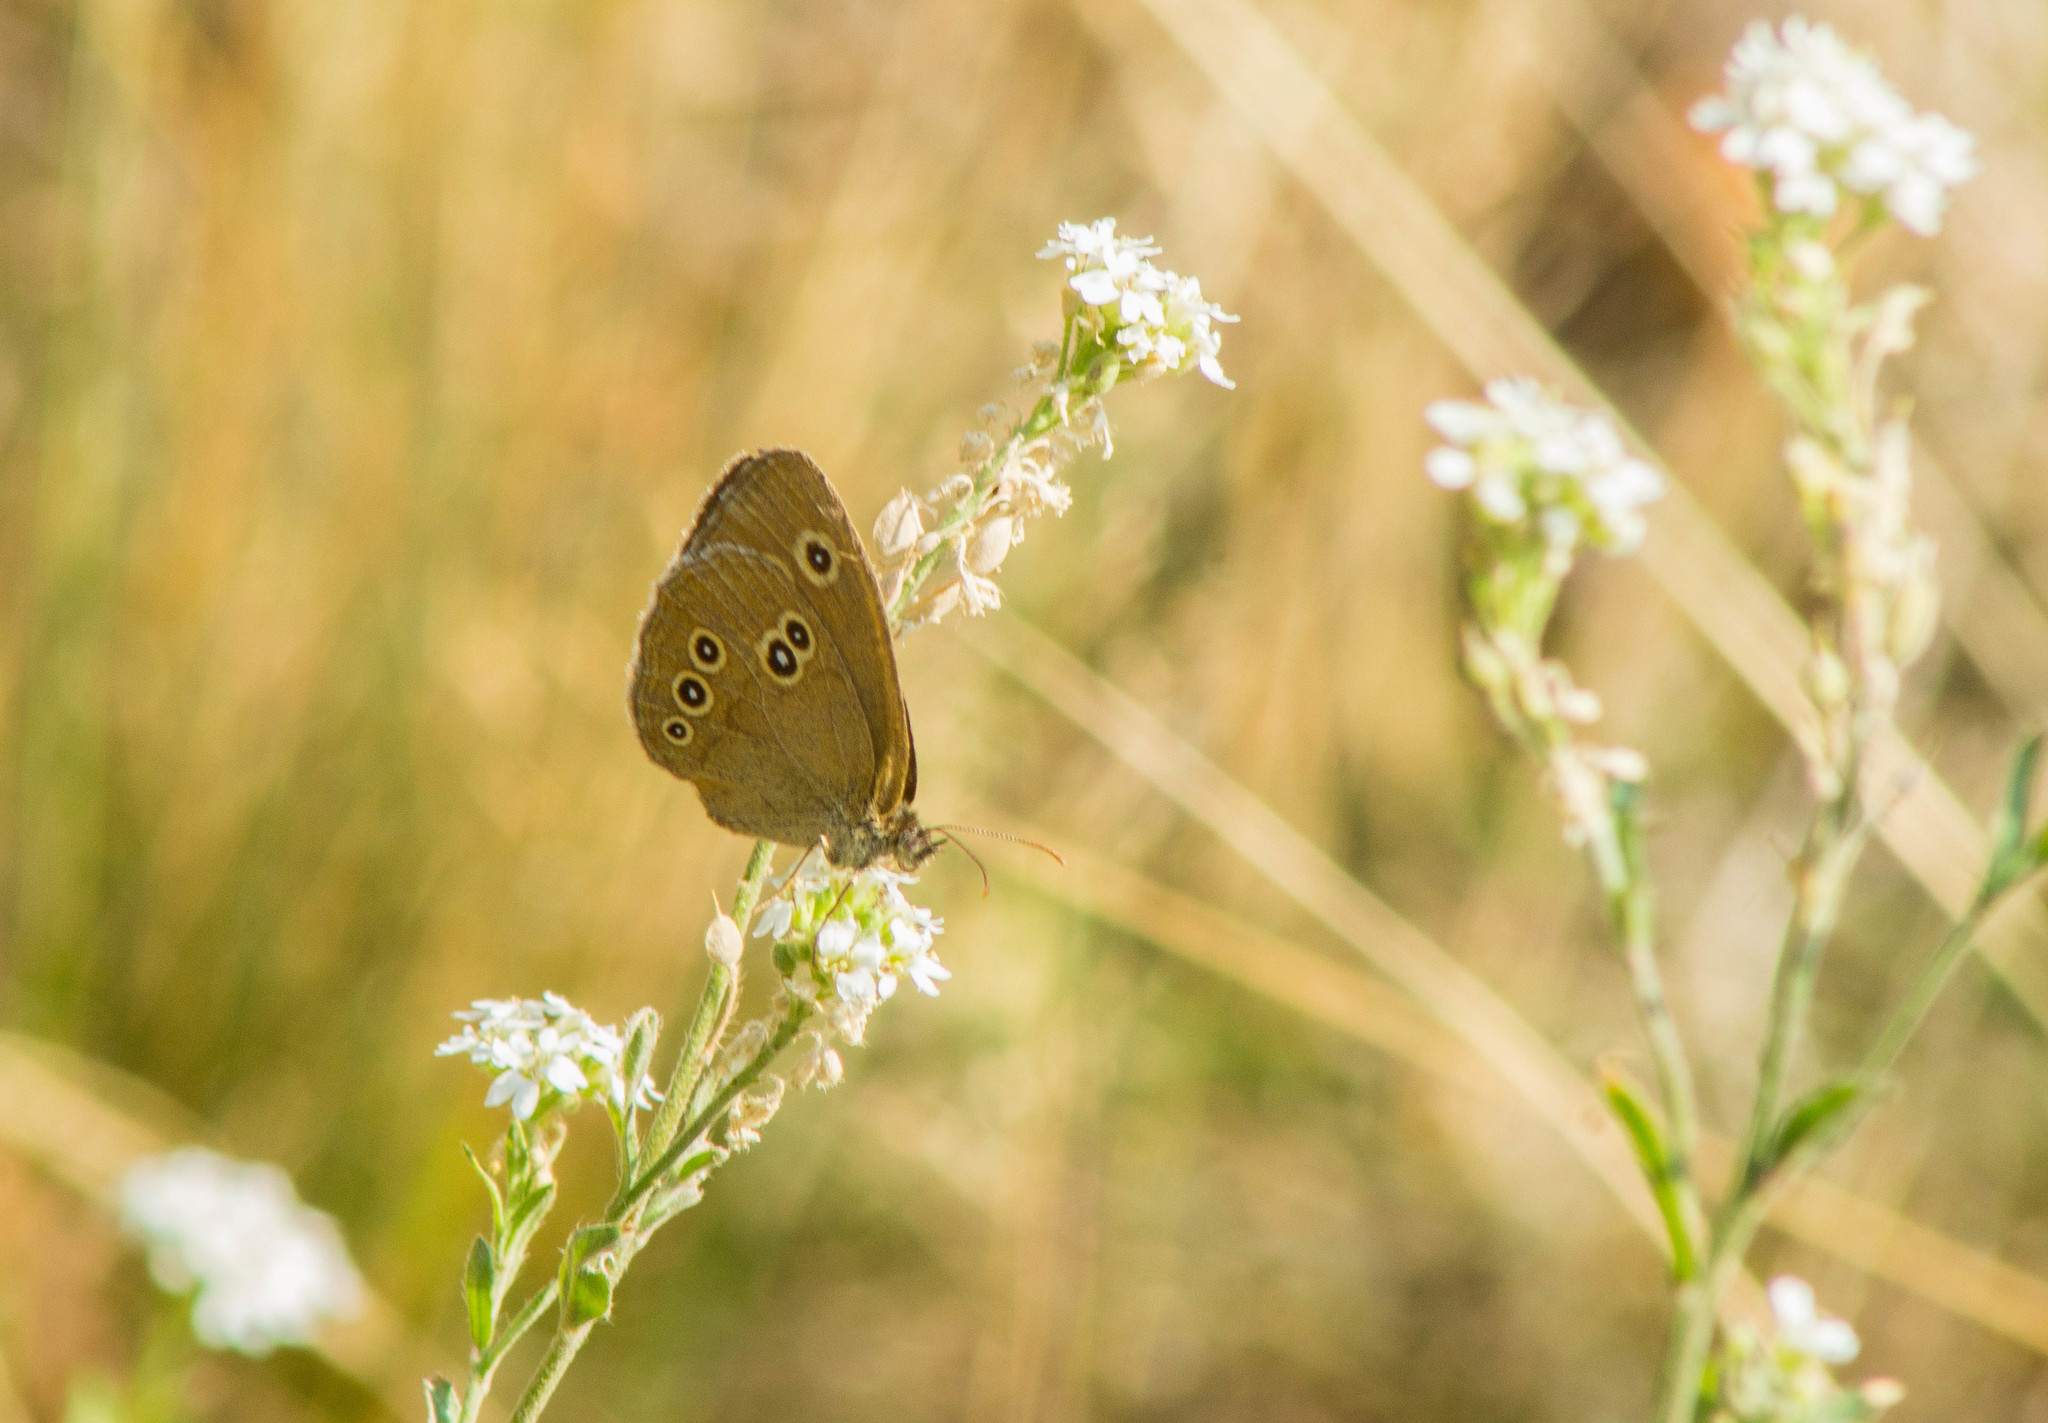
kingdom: Animalia
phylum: Arthropoda
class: Insecta
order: Lepidoptera
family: Nymphalidae
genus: Aphantopus
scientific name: Aphantopus hyperantus
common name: Ringlet
